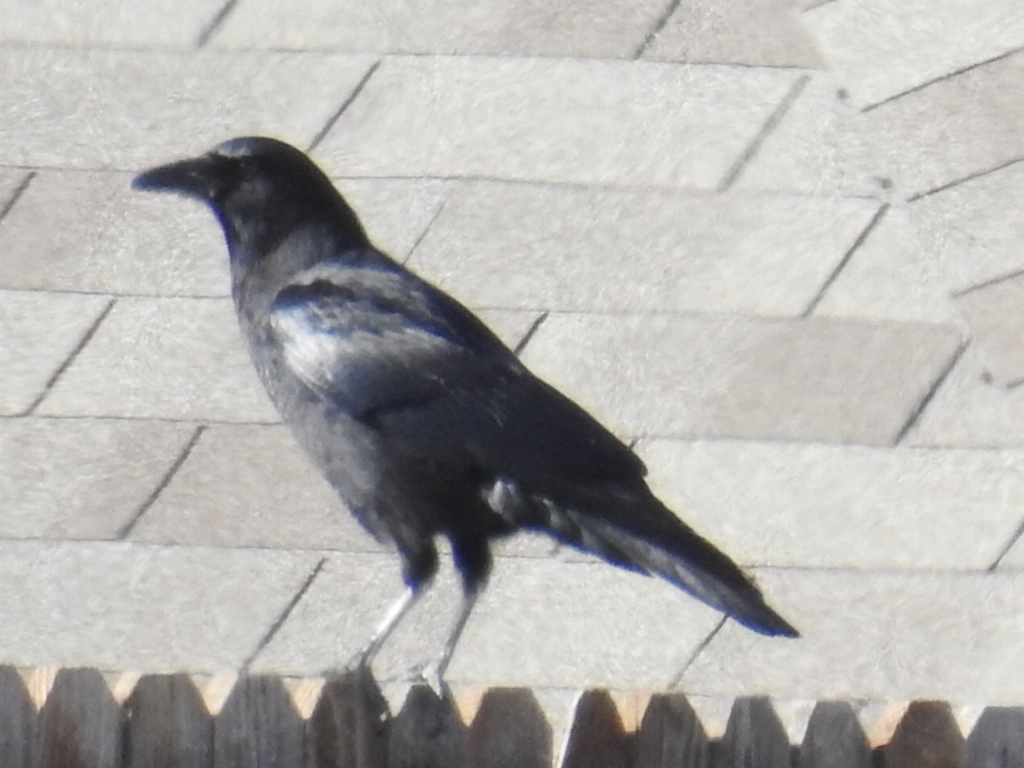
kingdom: Animalia
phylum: Chordata
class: Aves
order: Passeriformes
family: Corvidae
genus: Corvus
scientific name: Corvus brachyrhynchos
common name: American crow
